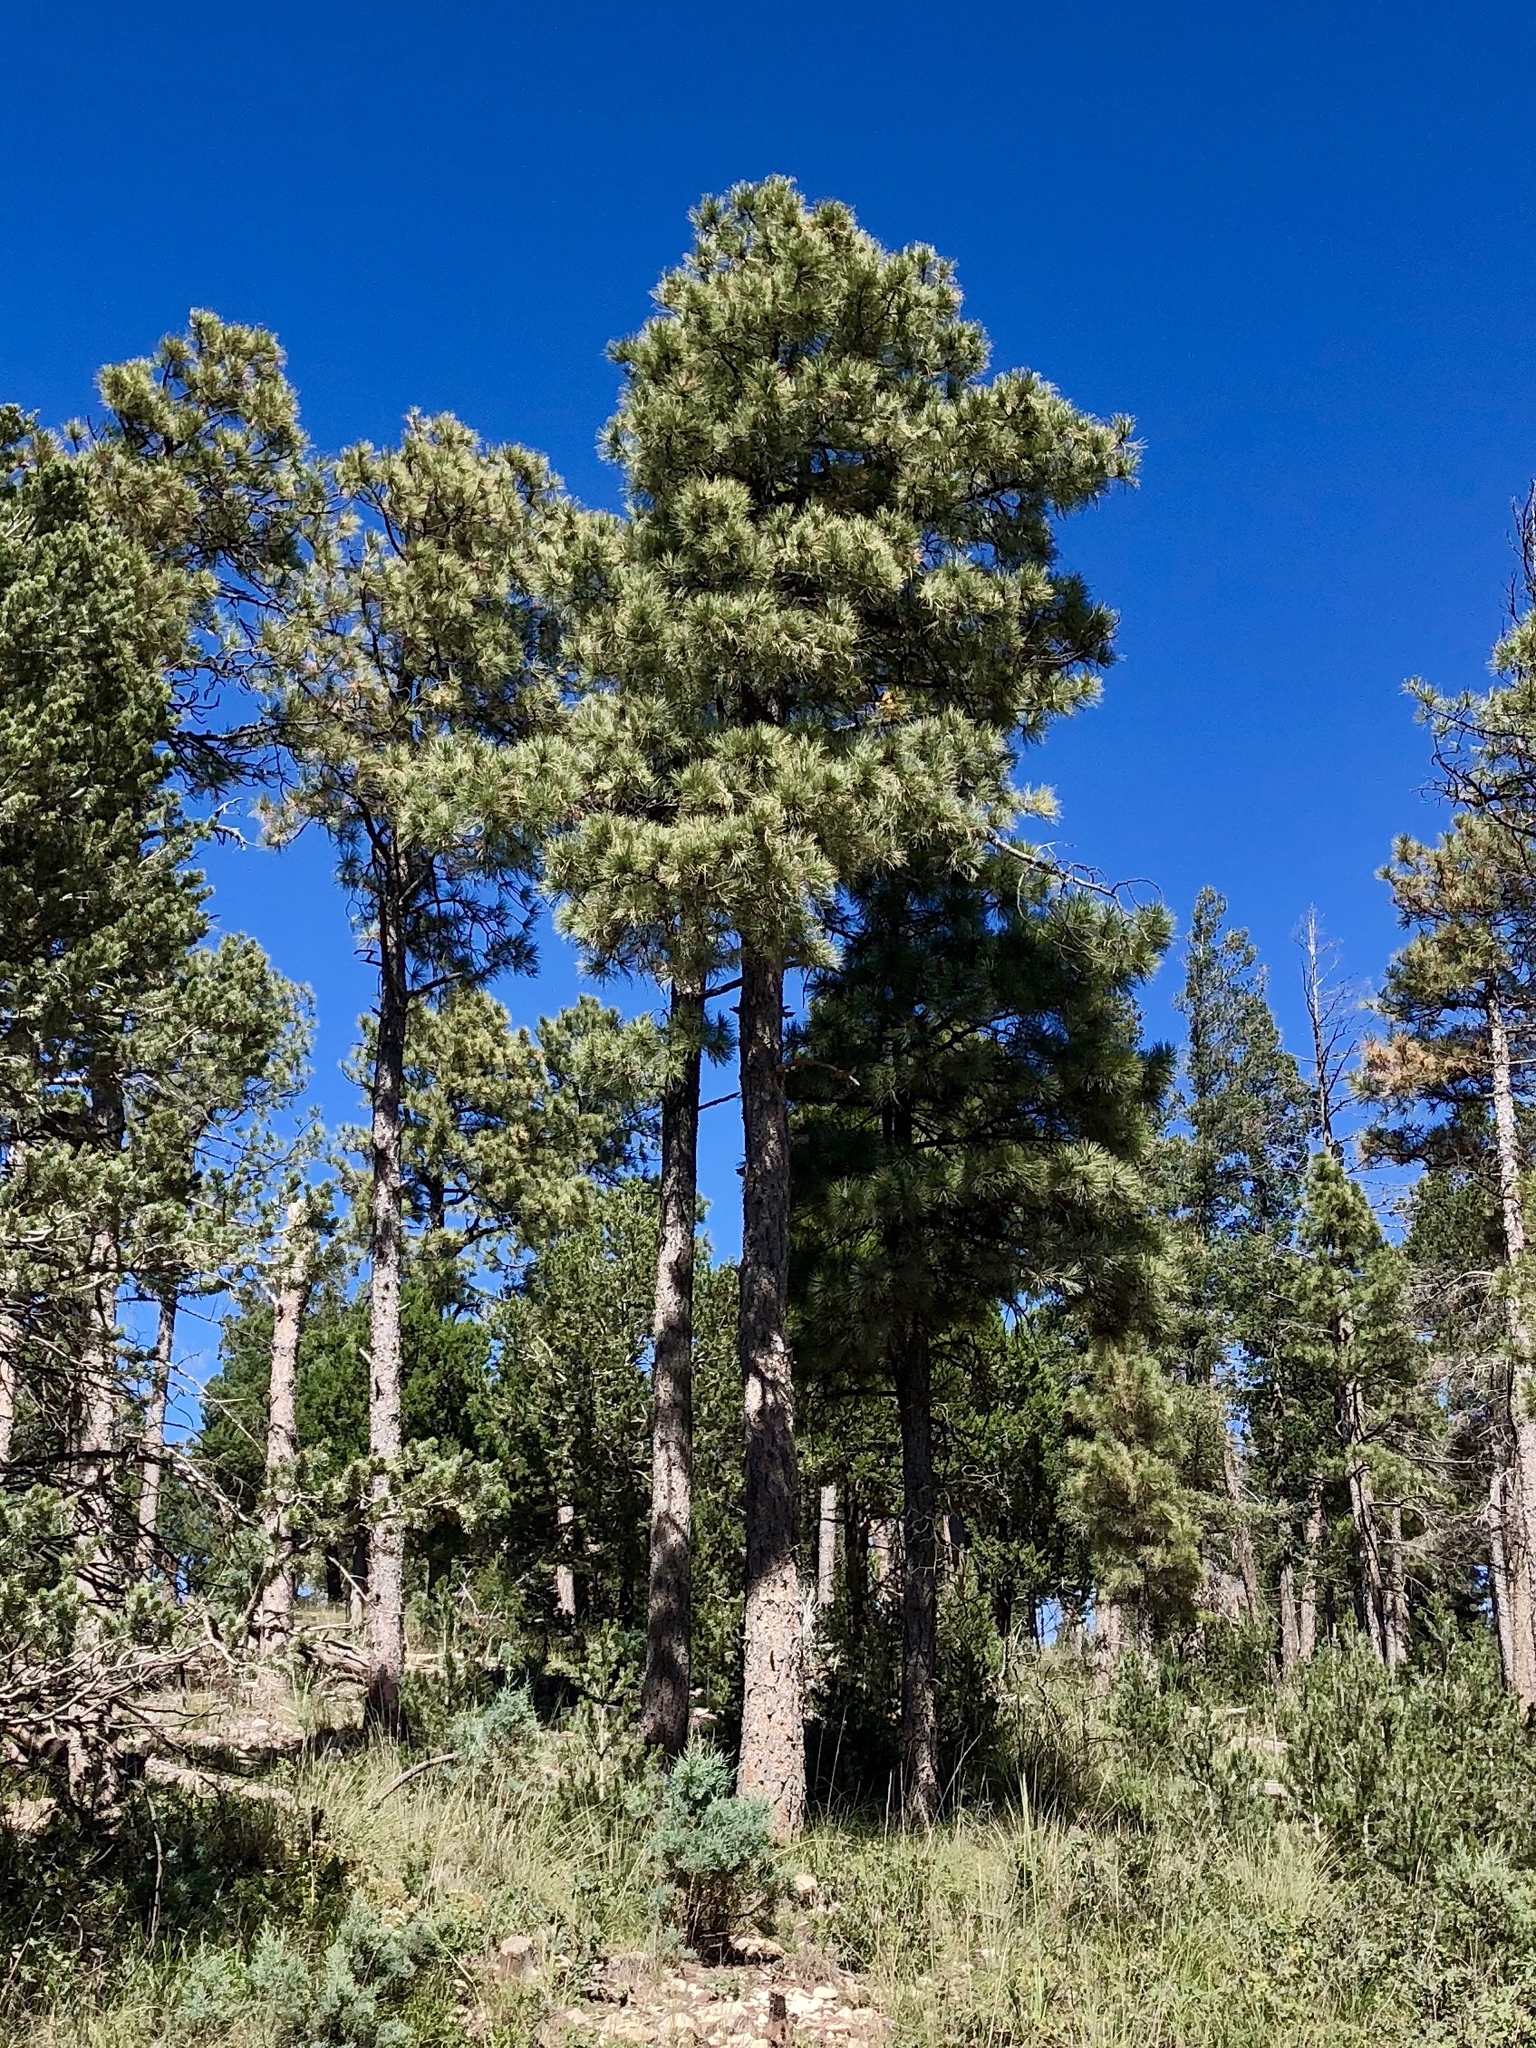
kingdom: Plantae
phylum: Tracheophyta
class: Pinopsida
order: Pinales
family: Pinaceae
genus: Pinus
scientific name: Pinus ponderosa
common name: Western yellow-pine
